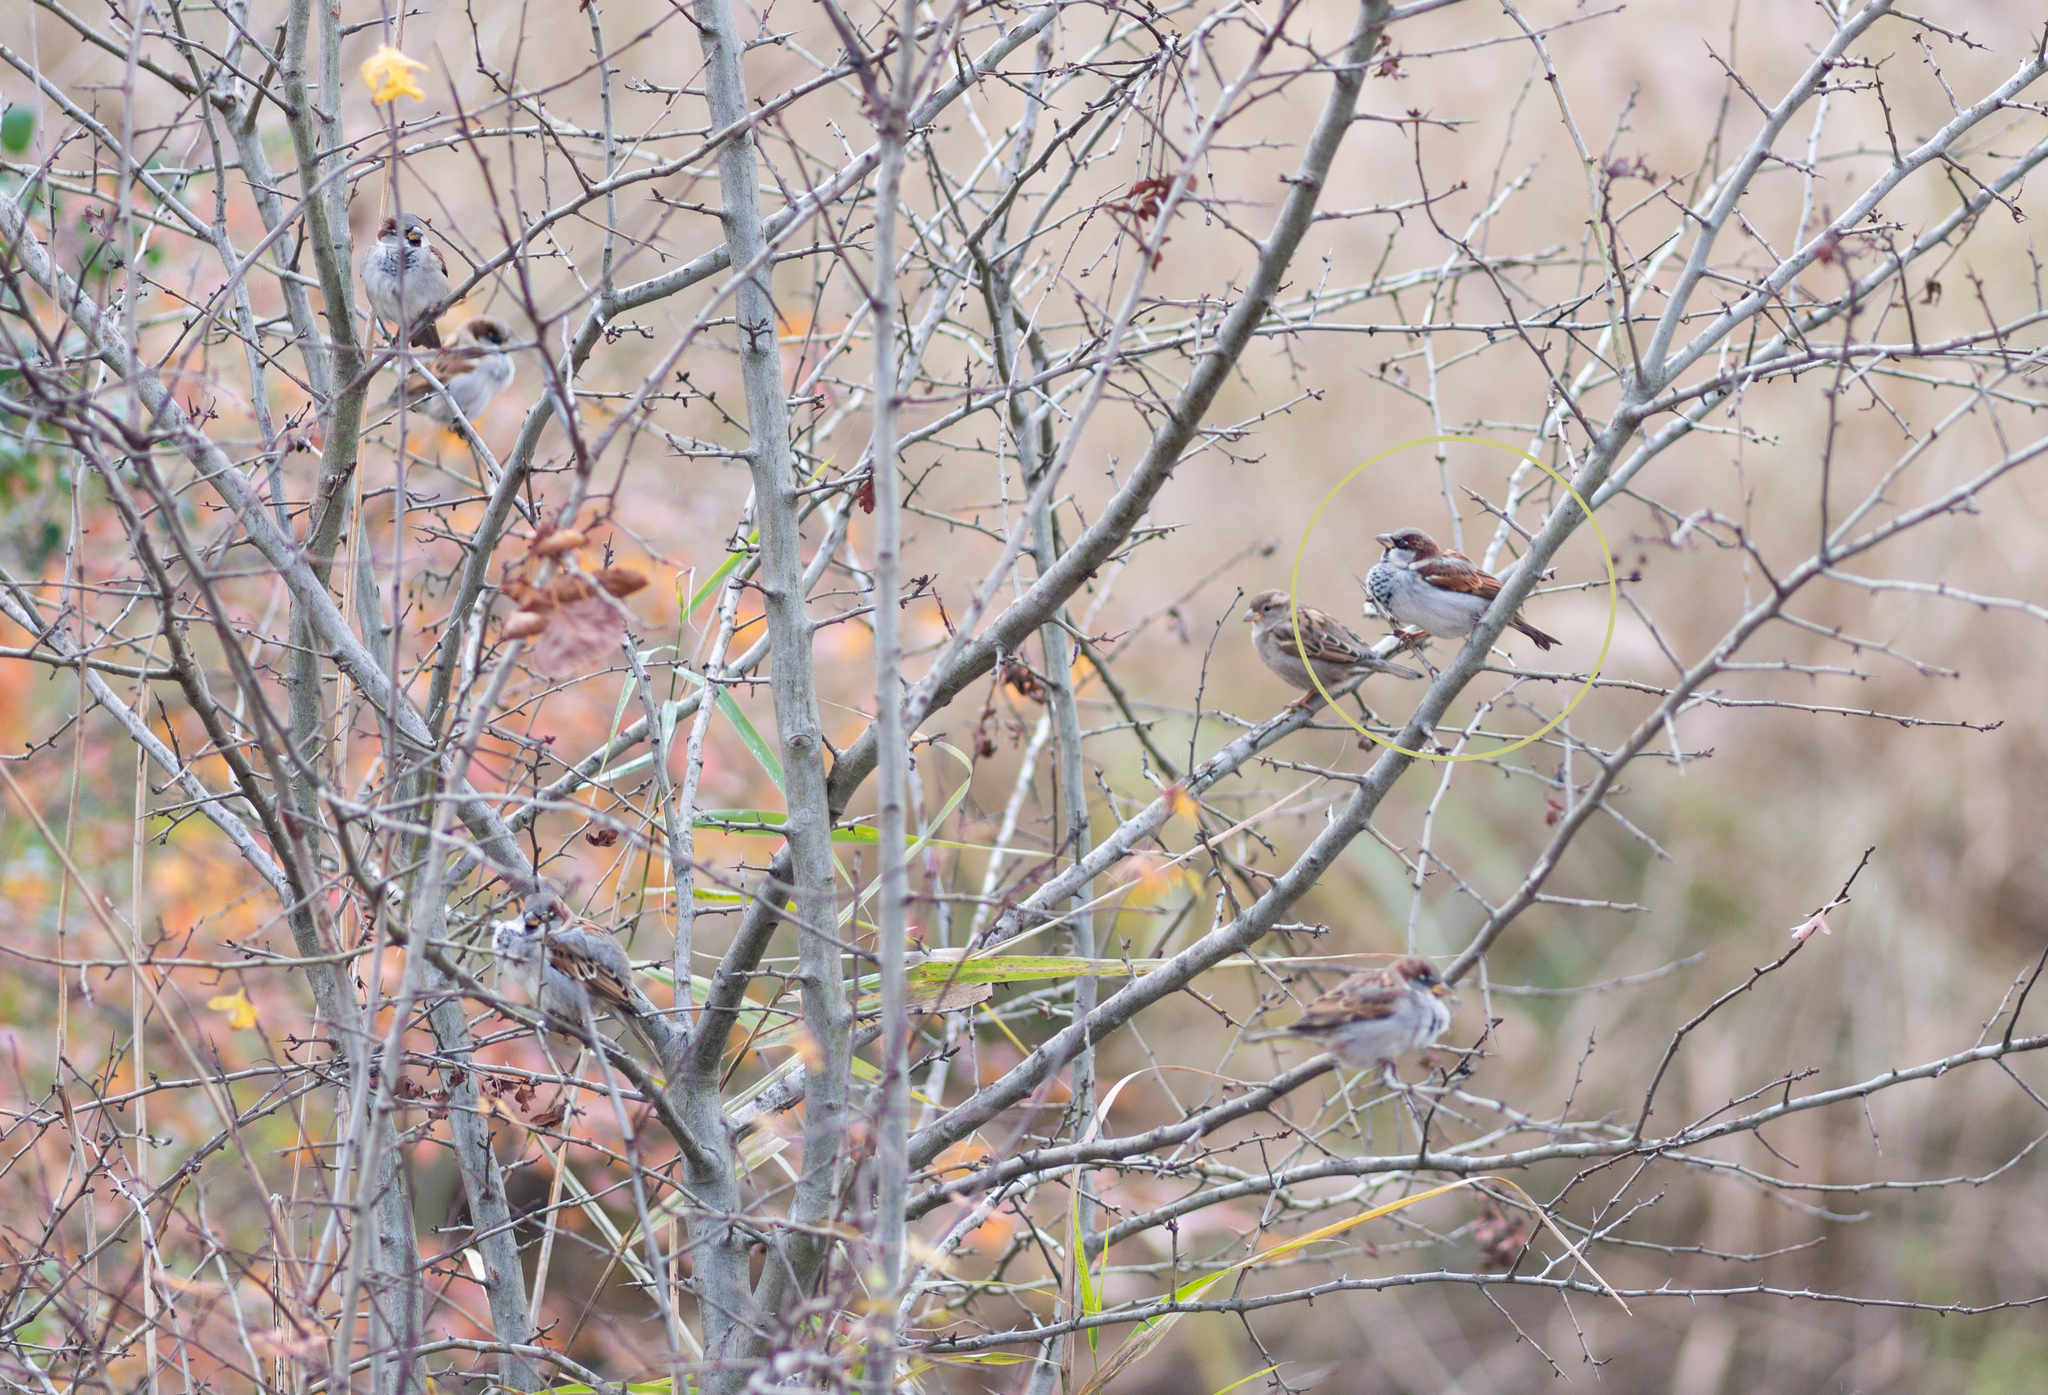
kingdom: Animalia
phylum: Chordata
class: Aves
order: Passeriformes
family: Passeridae
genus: Passer
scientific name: Passer domesticus
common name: House sparrow
